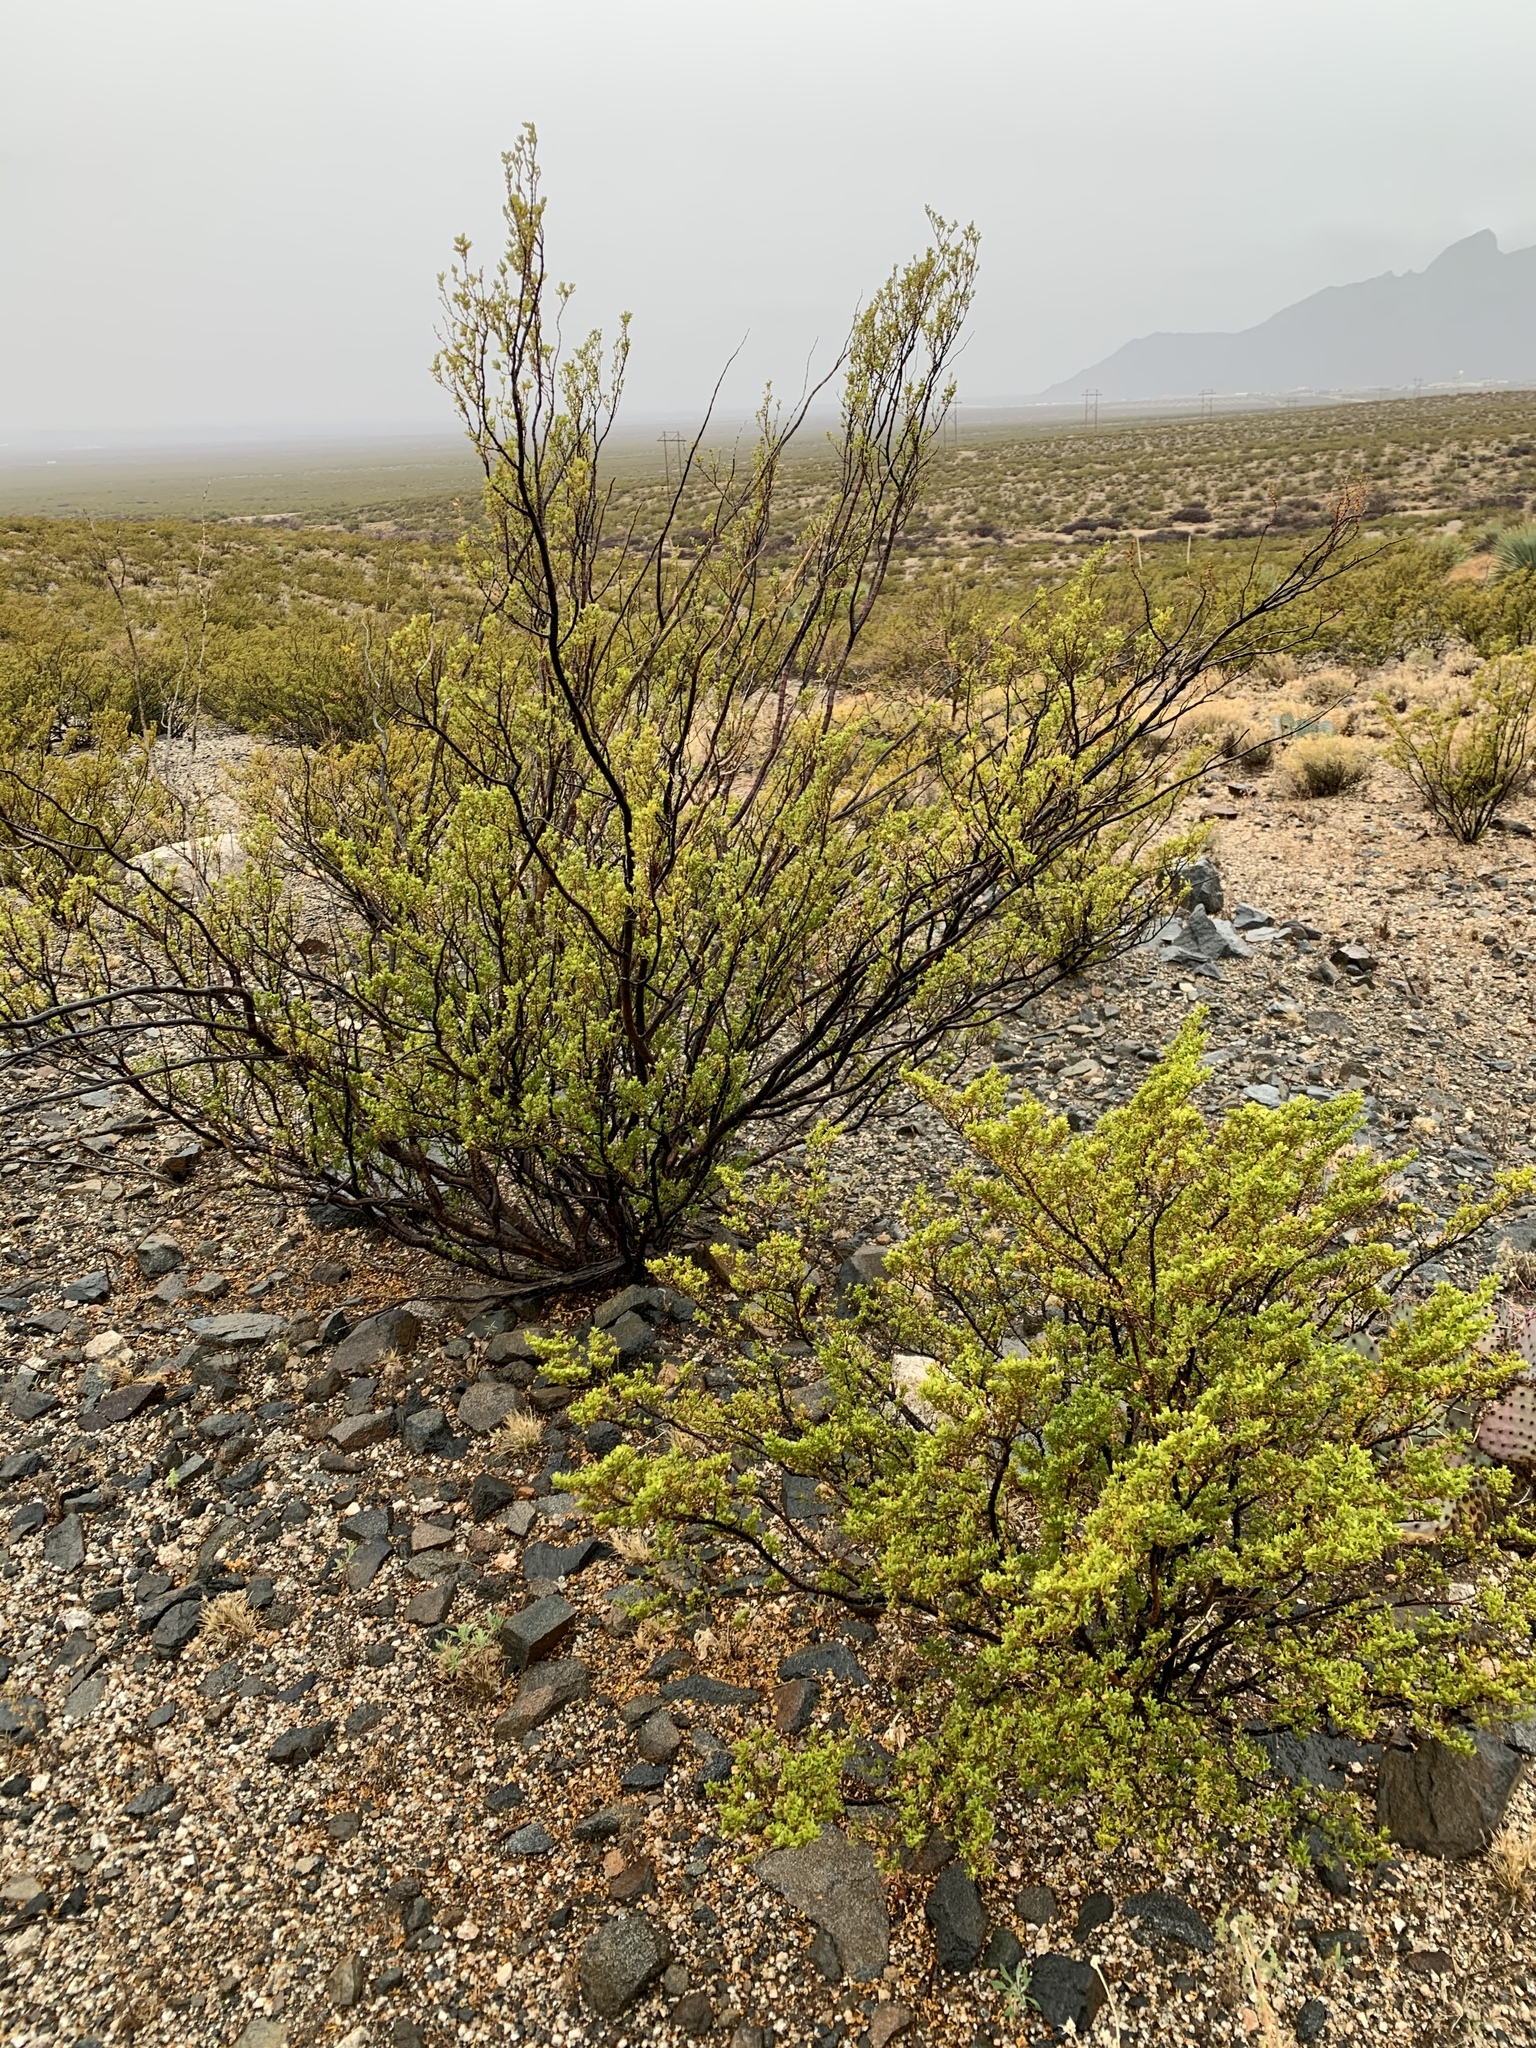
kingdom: Plantae
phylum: Tracheophyta
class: Magnoliopsida
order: Zygophyllales
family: Zygophyllaceae
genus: Larrea
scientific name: Larrea tridentata
